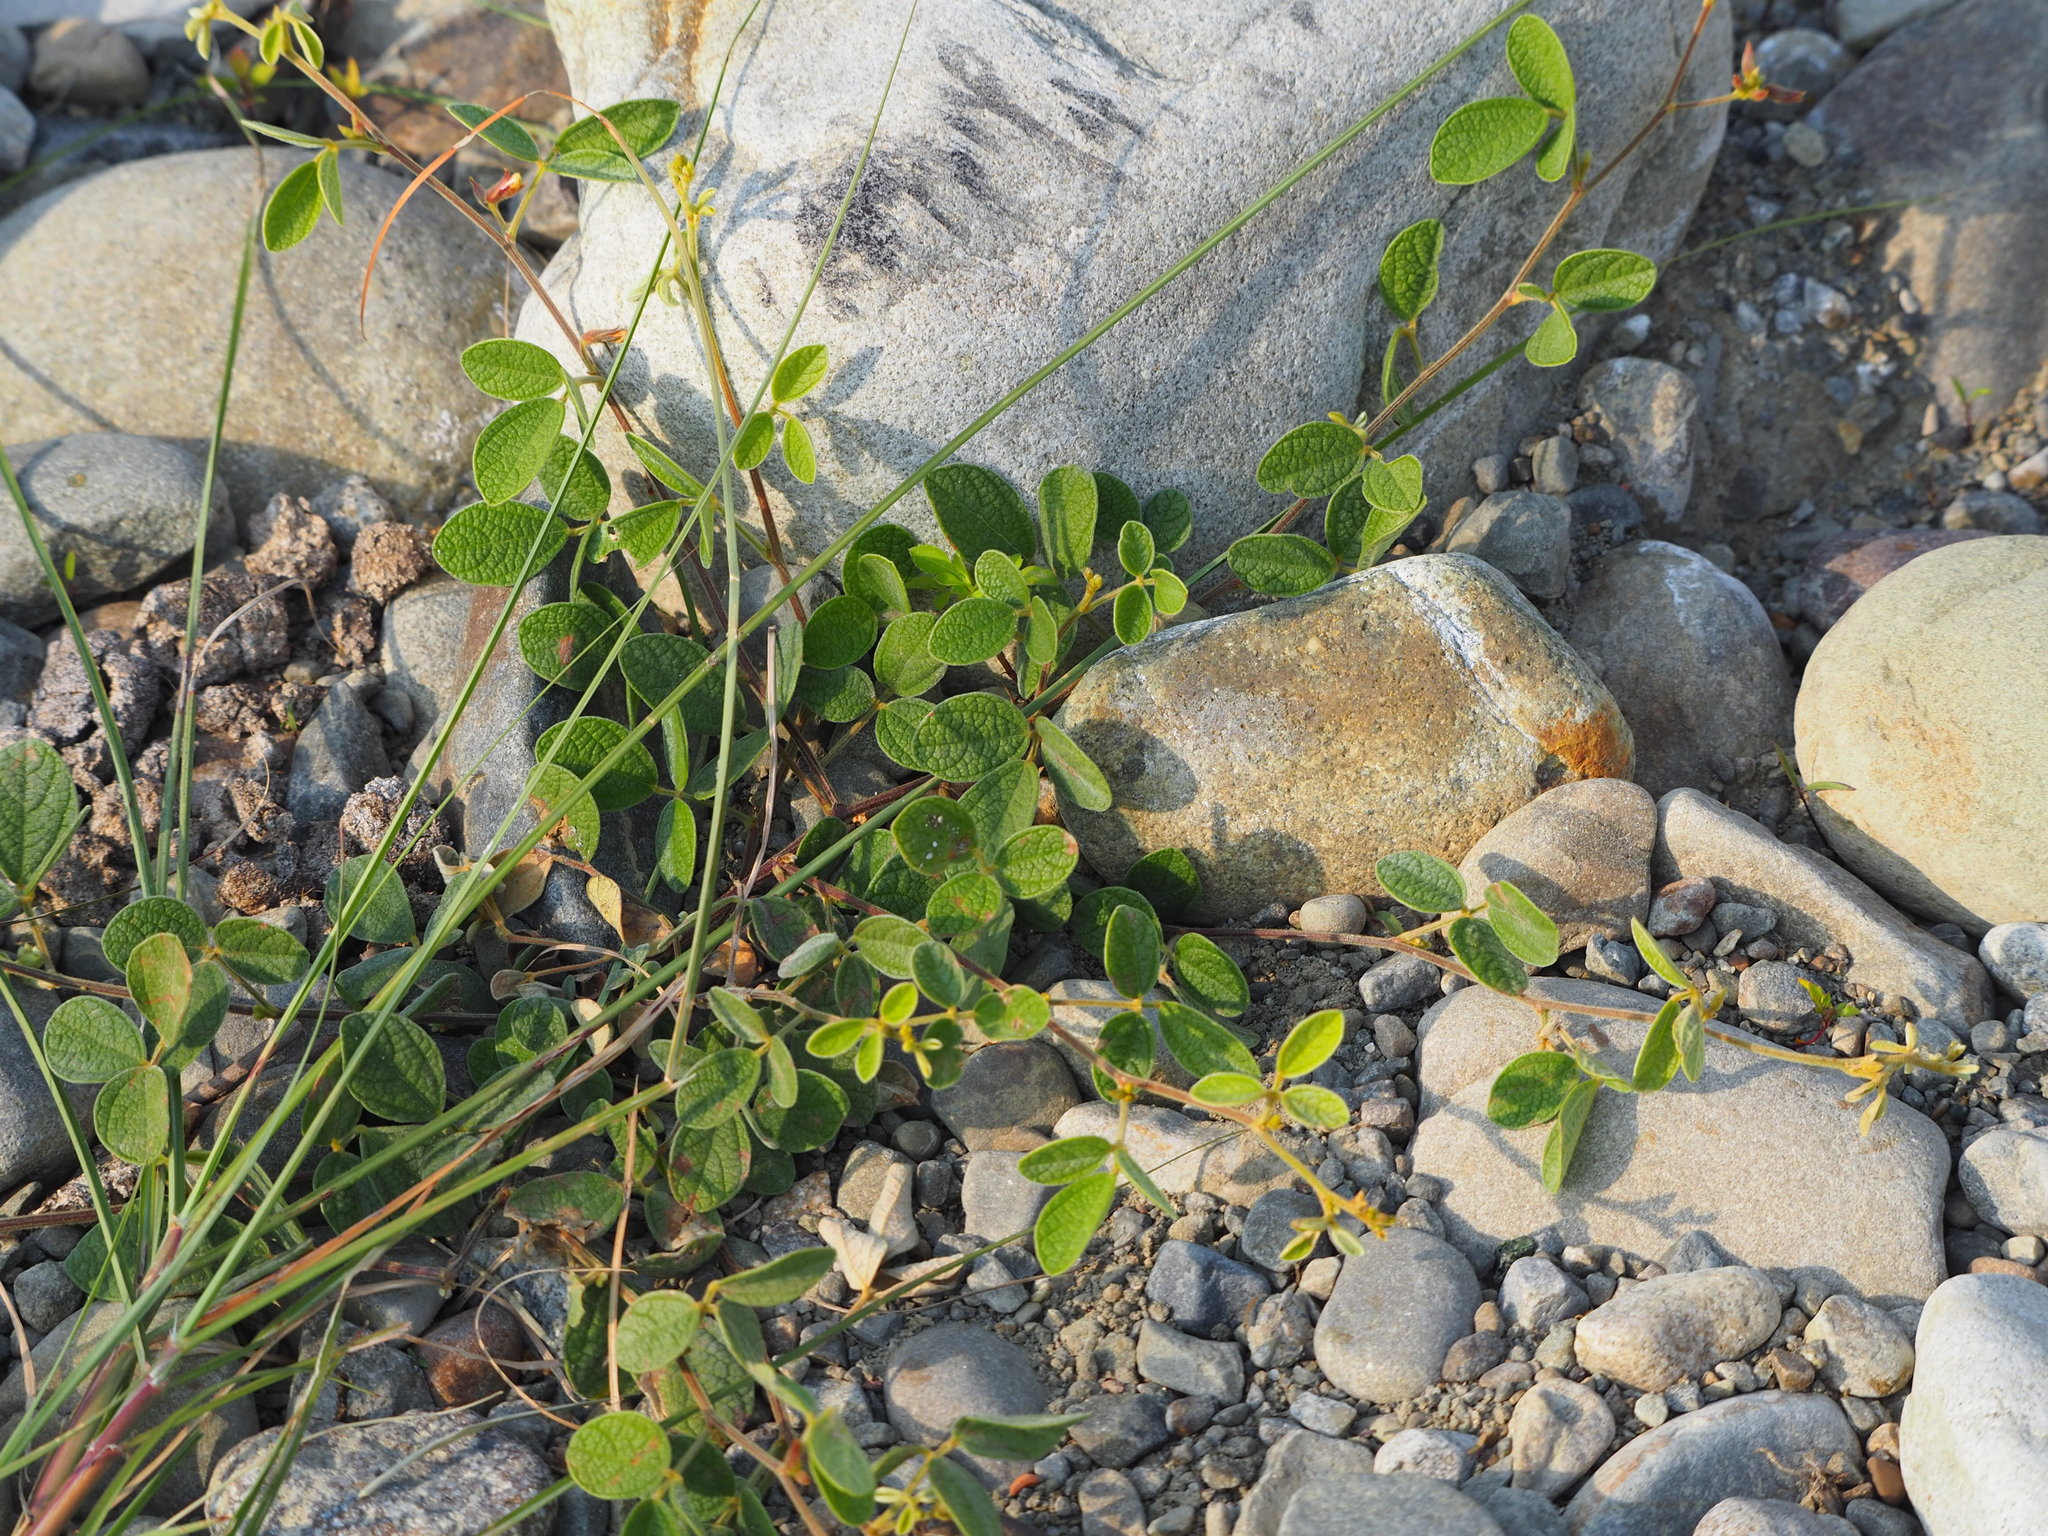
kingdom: Plantae
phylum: Tracheophyta
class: Magnoliopsida
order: Fabales
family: Fabaceae
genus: Cajanus
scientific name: Cajanus scarabaeoides
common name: Showy pigeonpea
